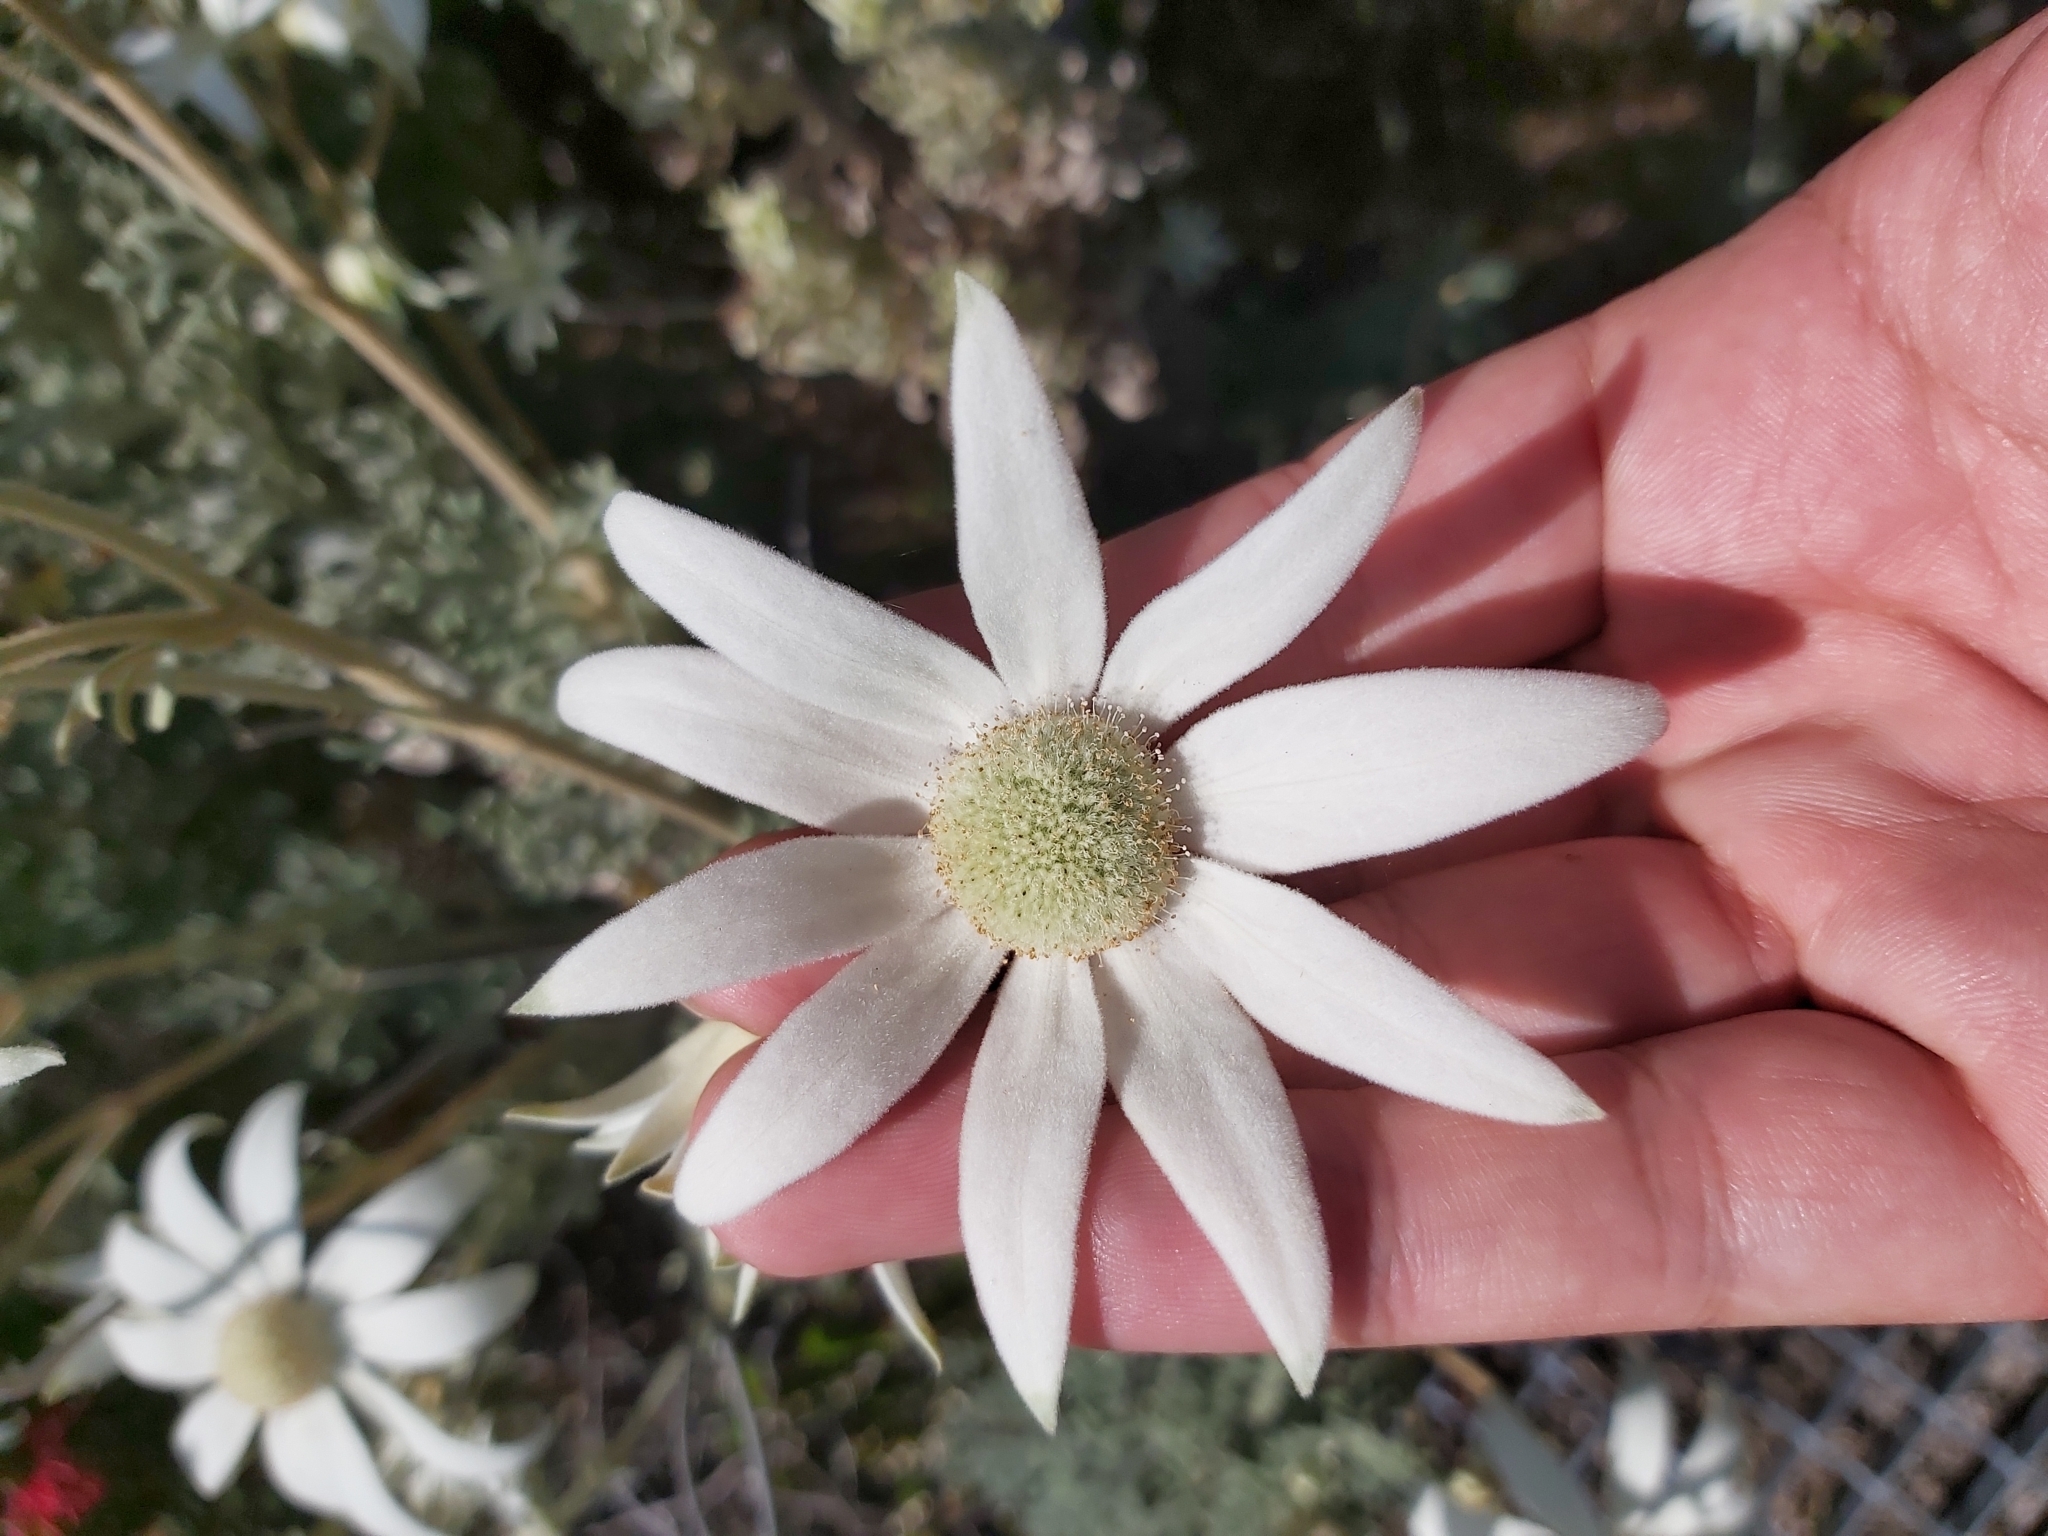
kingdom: Plantae
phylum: Tracheophyta
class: Magnoliopsida
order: Apiales
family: Apiaceae
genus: Actinotus
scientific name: Actinotus helianthi
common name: Flannel-flower
